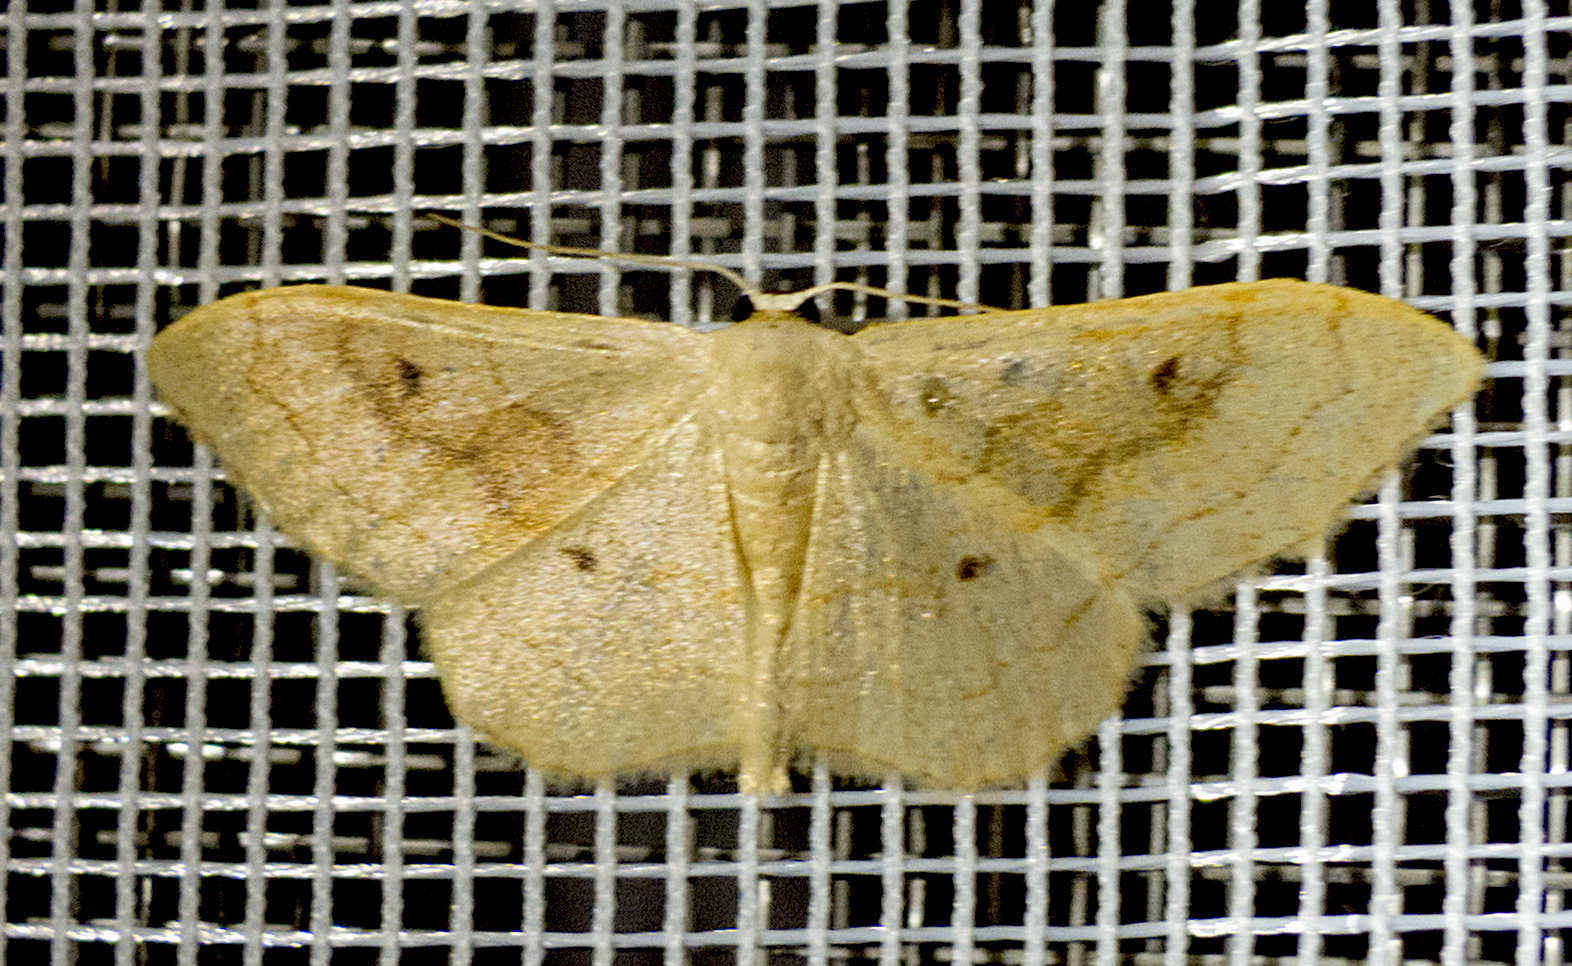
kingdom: Animalia
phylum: Arthropoda
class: Insecta
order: Lepidoptera
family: Geometridae
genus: Idaea
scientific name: Idaea bilinearia
